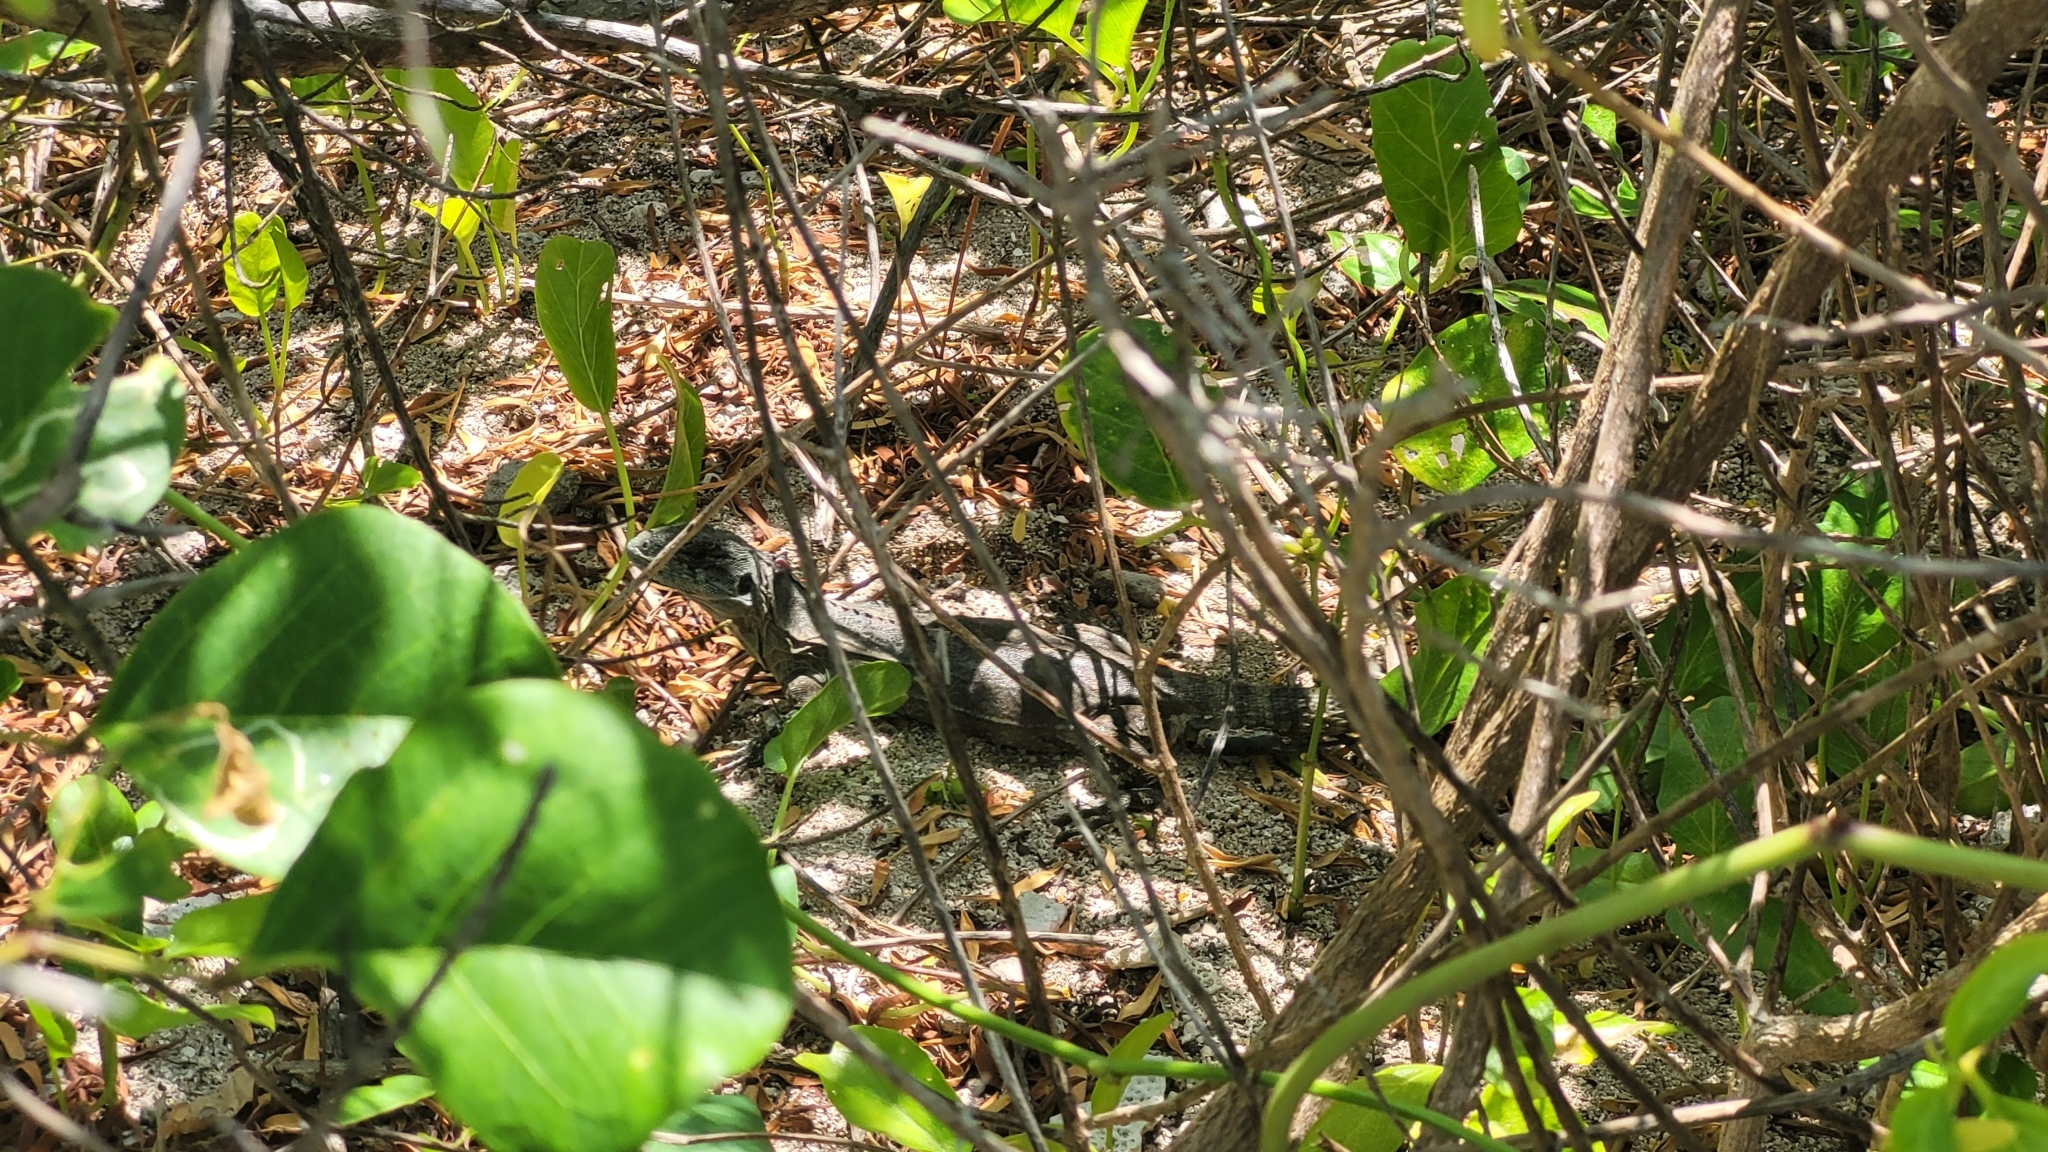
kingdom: Animalia
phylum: Chordata
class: Squamata
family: Iguanidae
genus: Ctenosaura
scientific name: Ctenosaura bakeri
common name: Utila spiny-tailed iguana
